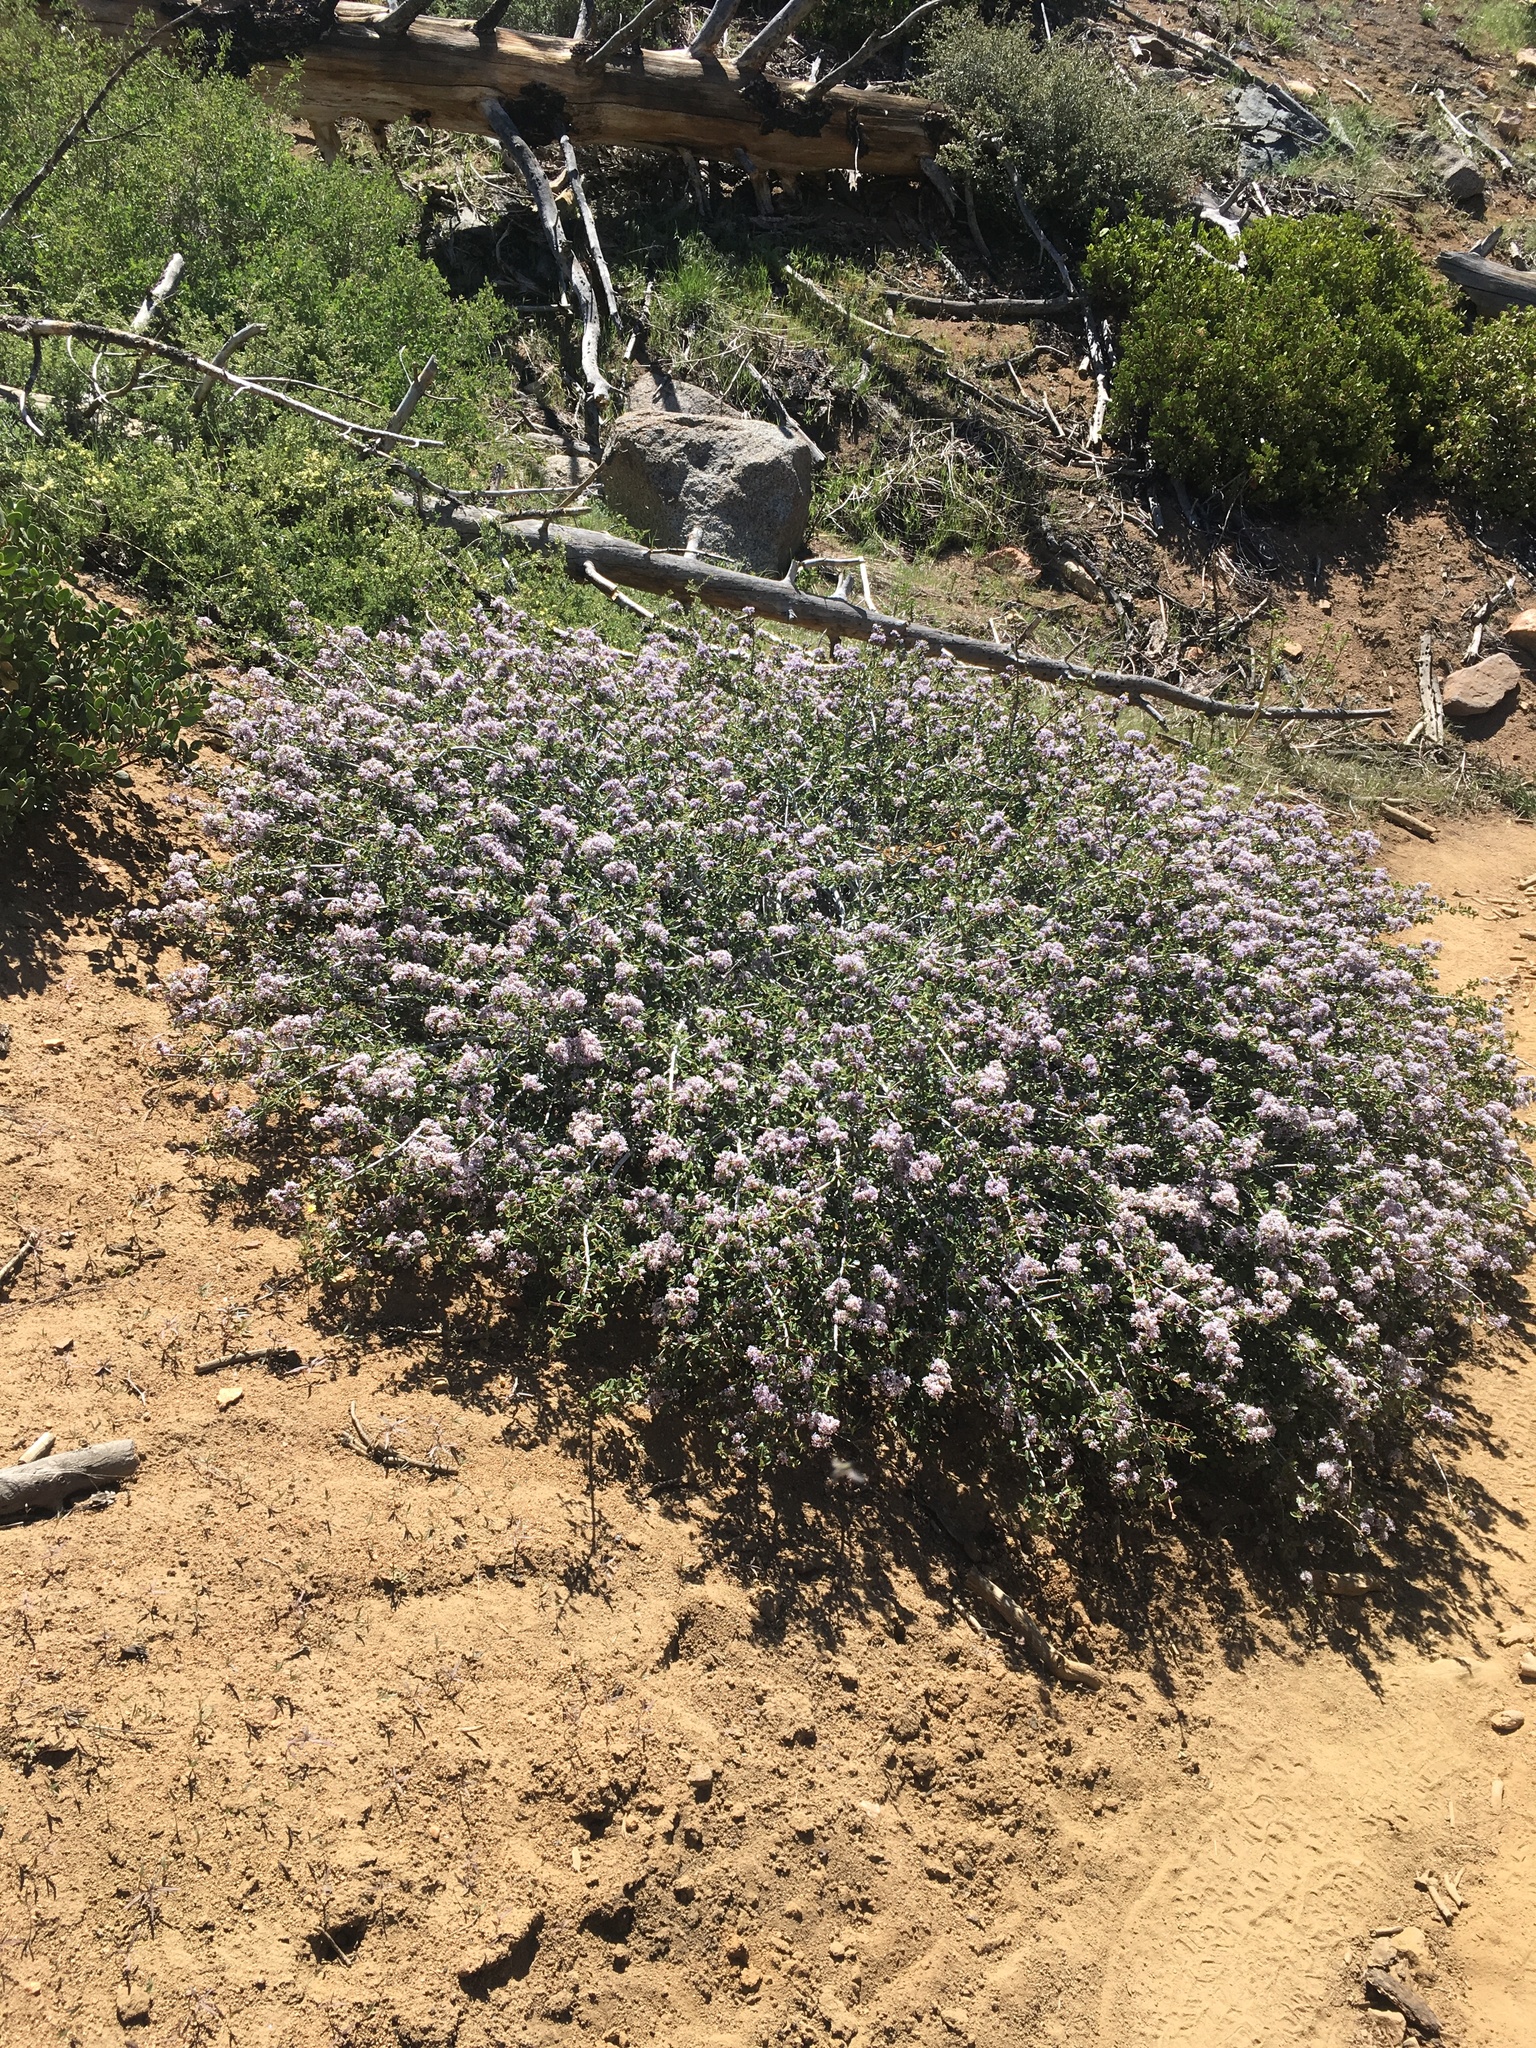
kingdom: Plantae
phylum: Tracheophyta
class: Magnoliopsida
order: Rosales
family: Rhamnaceae
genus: Ceanothus
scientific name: Ceanothus pinetorum
